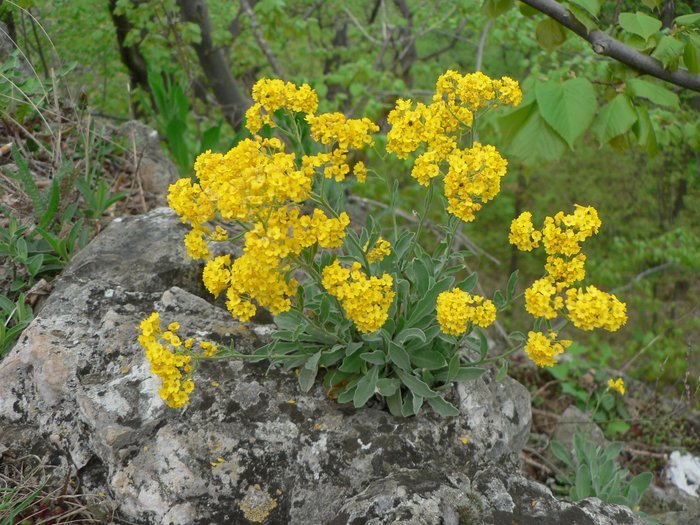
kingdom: Plantae
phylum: Tracheophyta
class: Magnoliopsida
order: Brassicales
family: Brassicaceae
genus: Aurinia
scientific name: Aurinia saxatilis
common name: Golden-tuft alyssum
